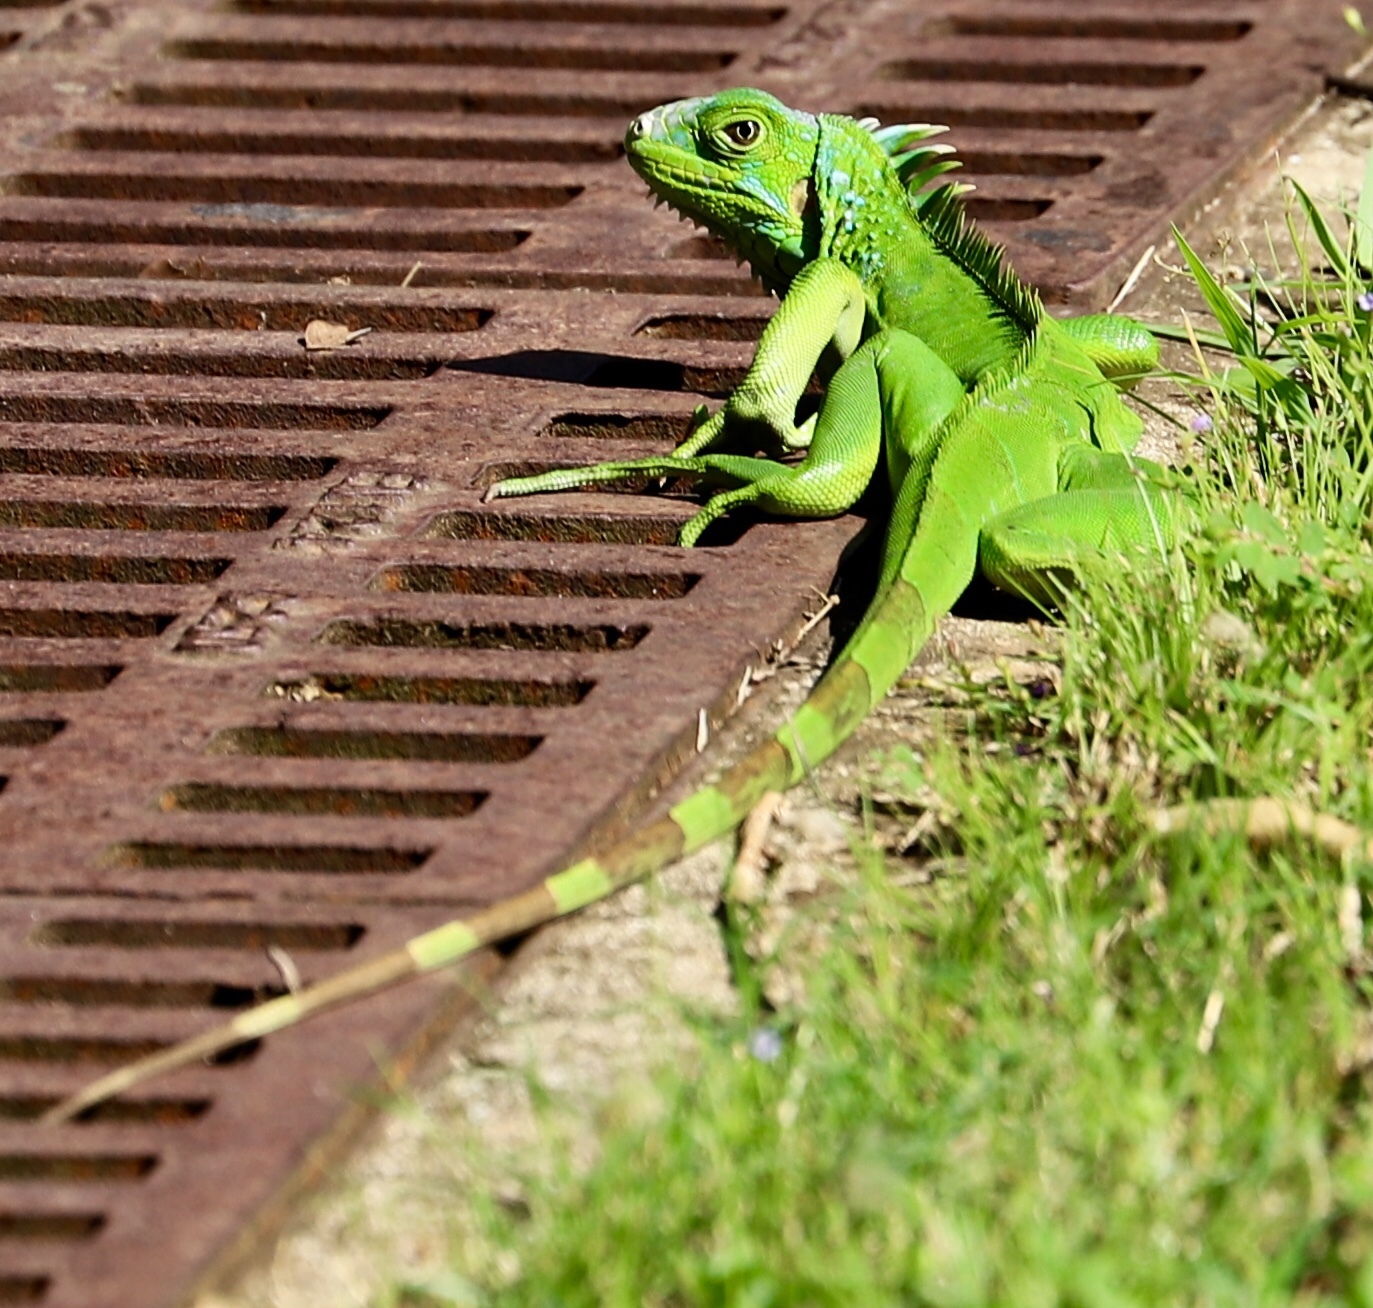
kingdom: Animalia
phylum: Chordata
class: Squamata
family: Iguanidae
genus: Iguana
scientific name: Iguana iguana
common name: Green iguana
